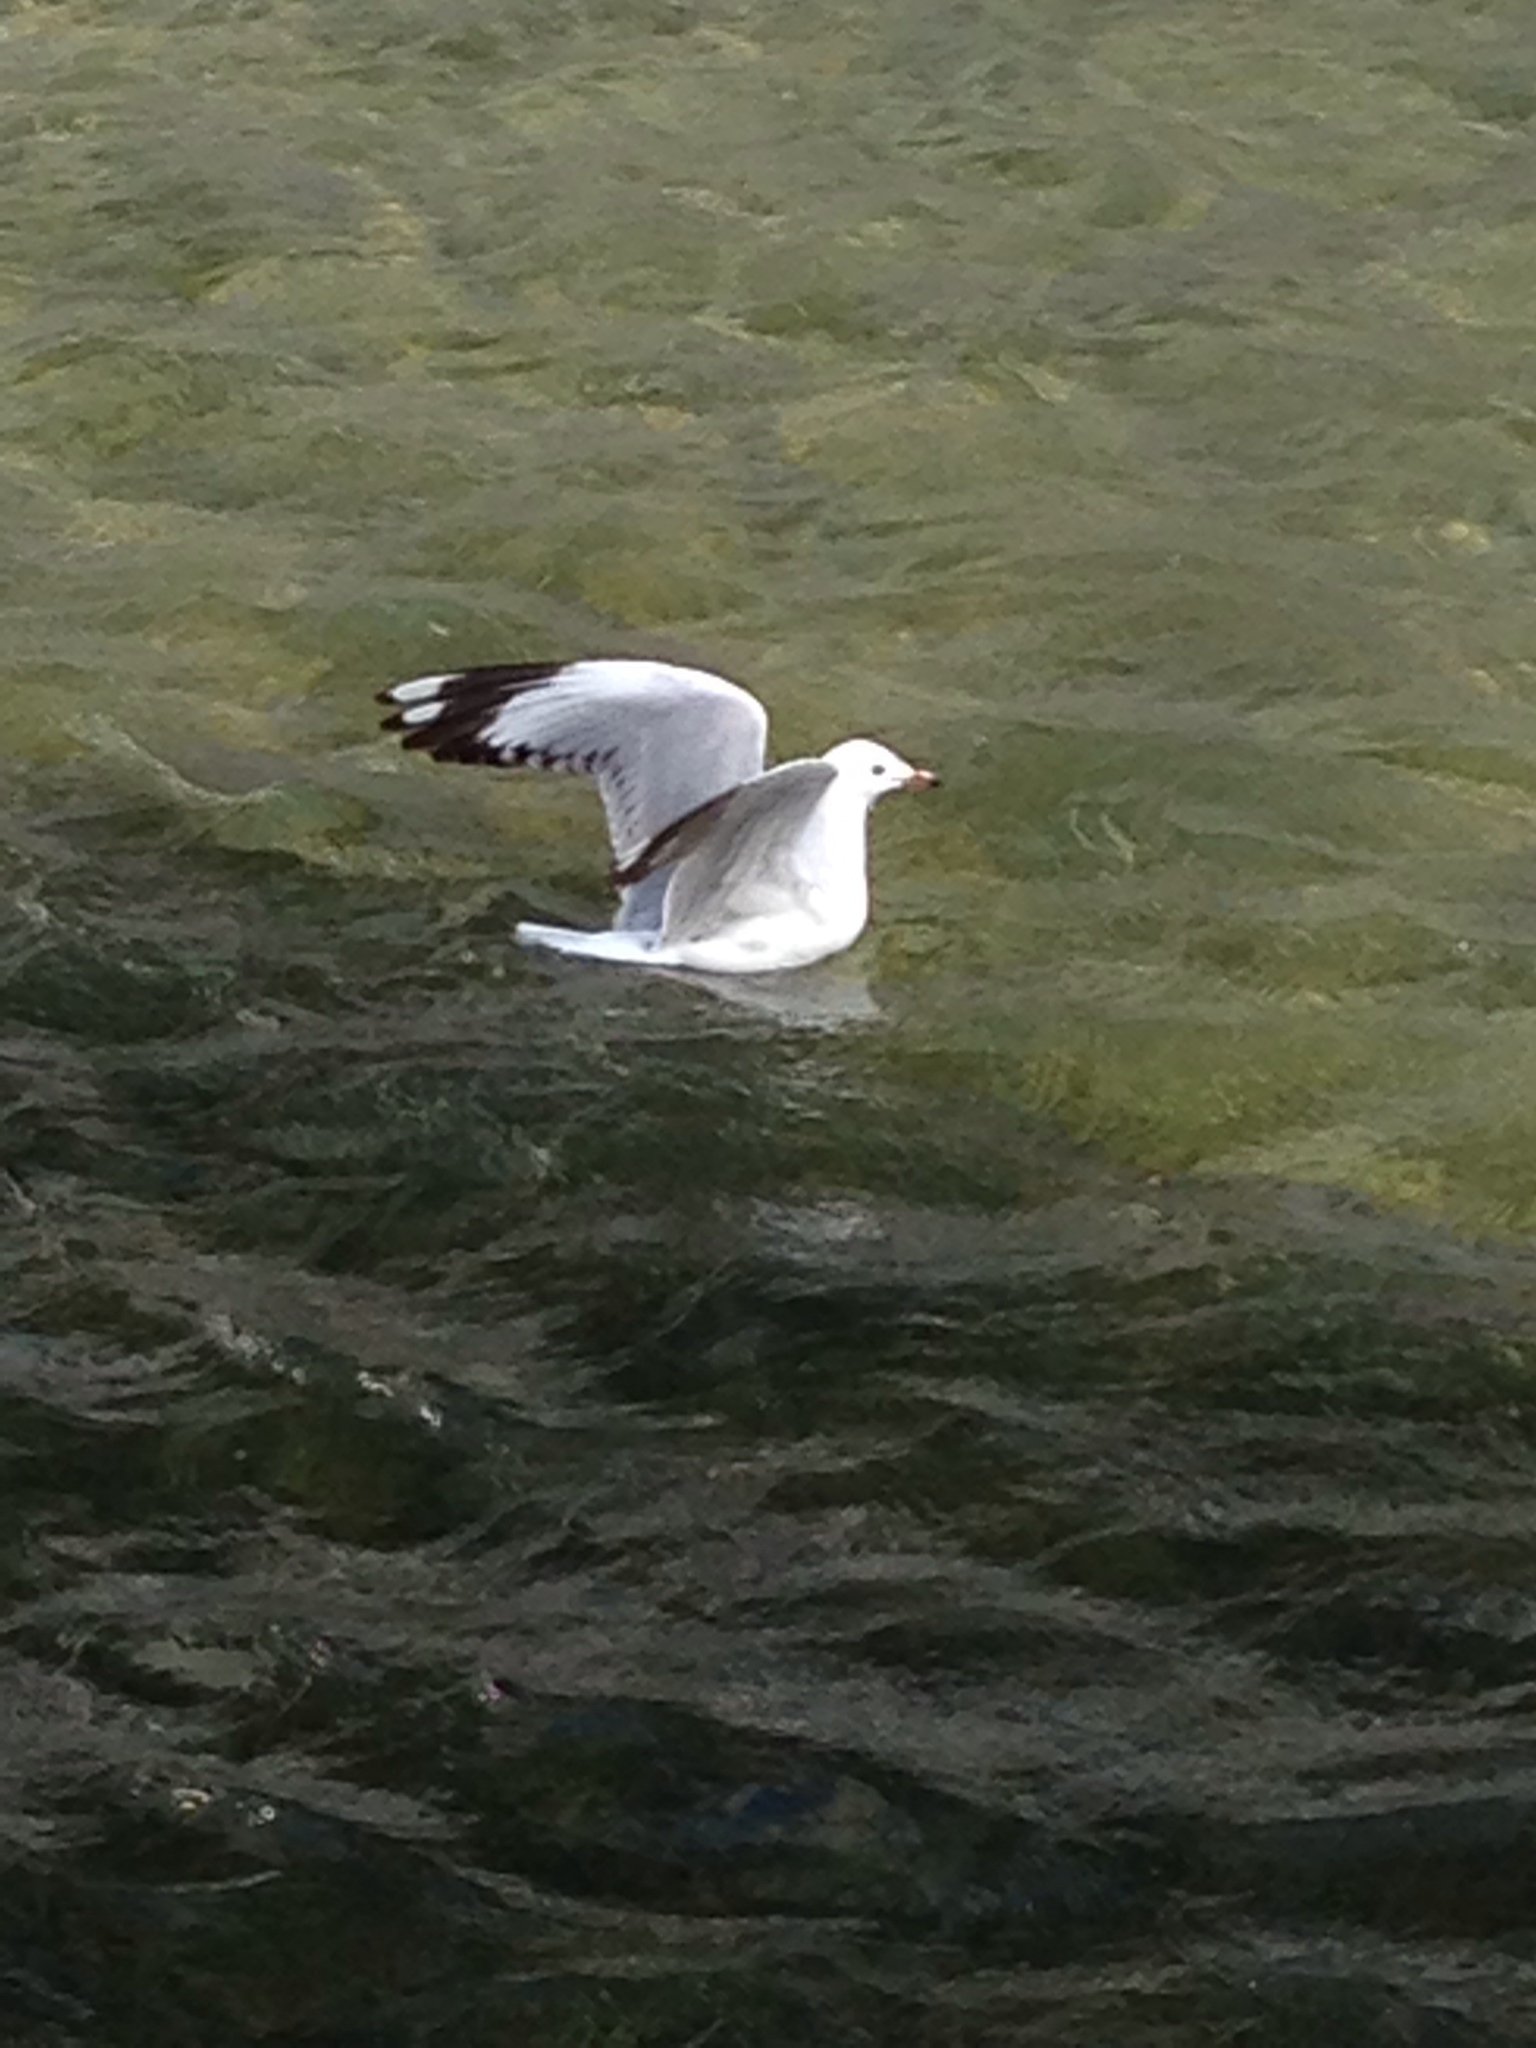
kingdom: Animalia
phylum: Chordata
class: Aves
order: Charadriiformes
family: Laridae
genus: Chroicocephalus
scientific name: Chroicocephalus novaehollandiae
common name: Silver gull
